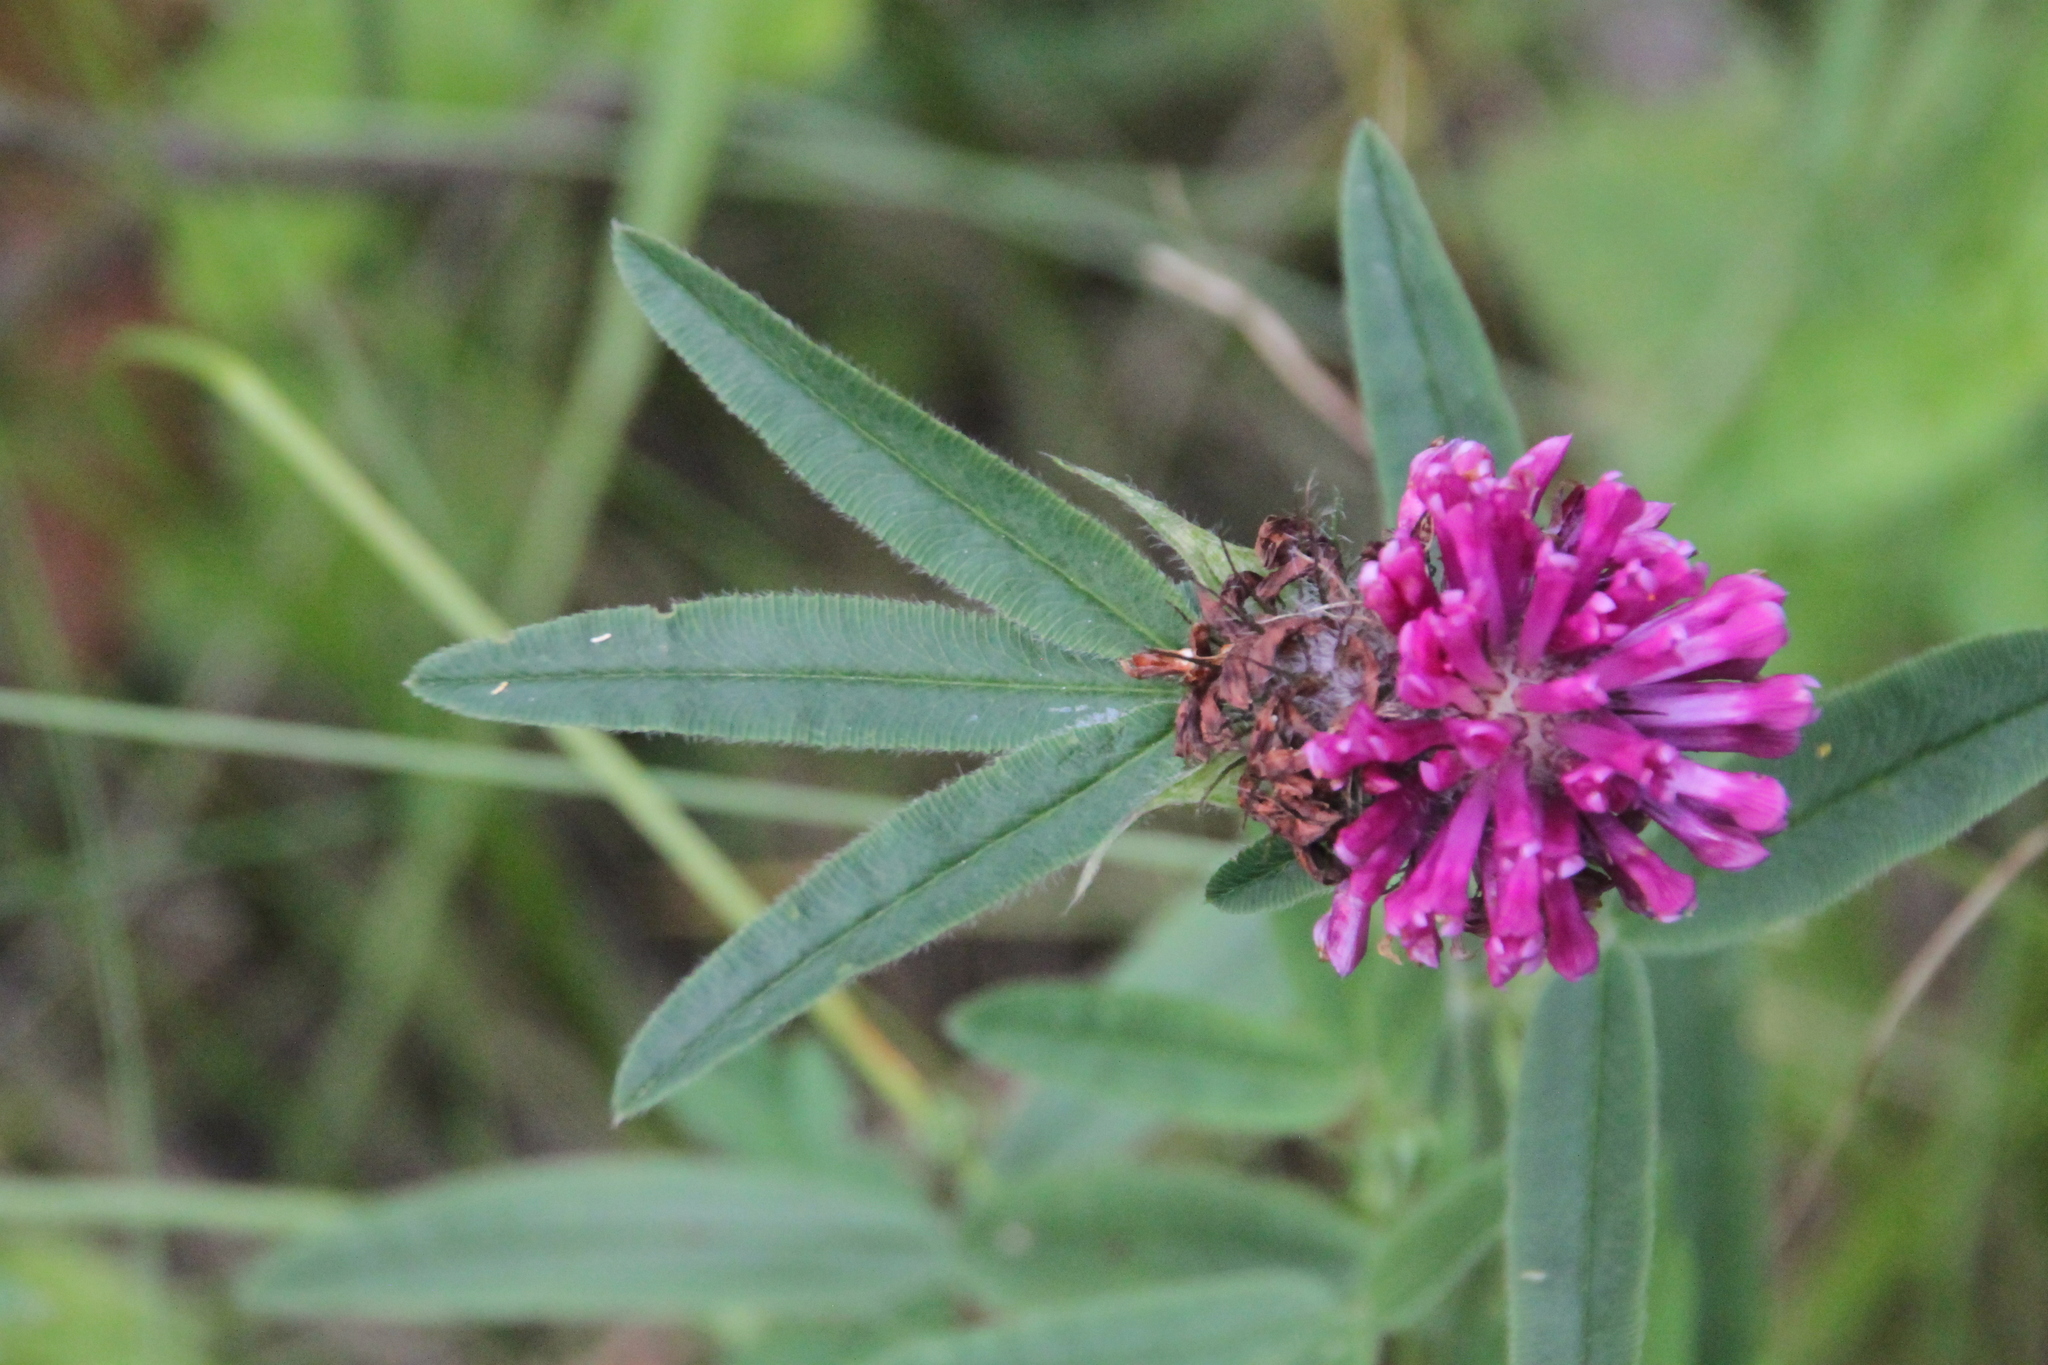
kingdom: Plantae
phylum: Tracheophyta
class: Magnoliopsida
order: Fabales
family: Fabaceae
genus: Trifolium
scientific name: Trifolium alpestre
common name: Owl-head clover
